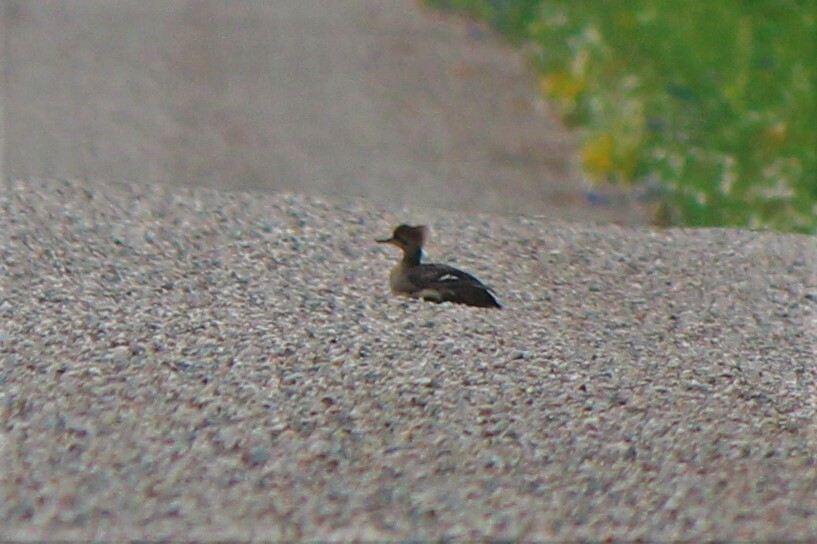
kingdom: Animalia
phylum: Chordata
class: Aves
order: Anseriformes
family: Anatidae
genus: Lophodytes
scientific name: Lophodytes cucullatus
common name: Hooded merganser
